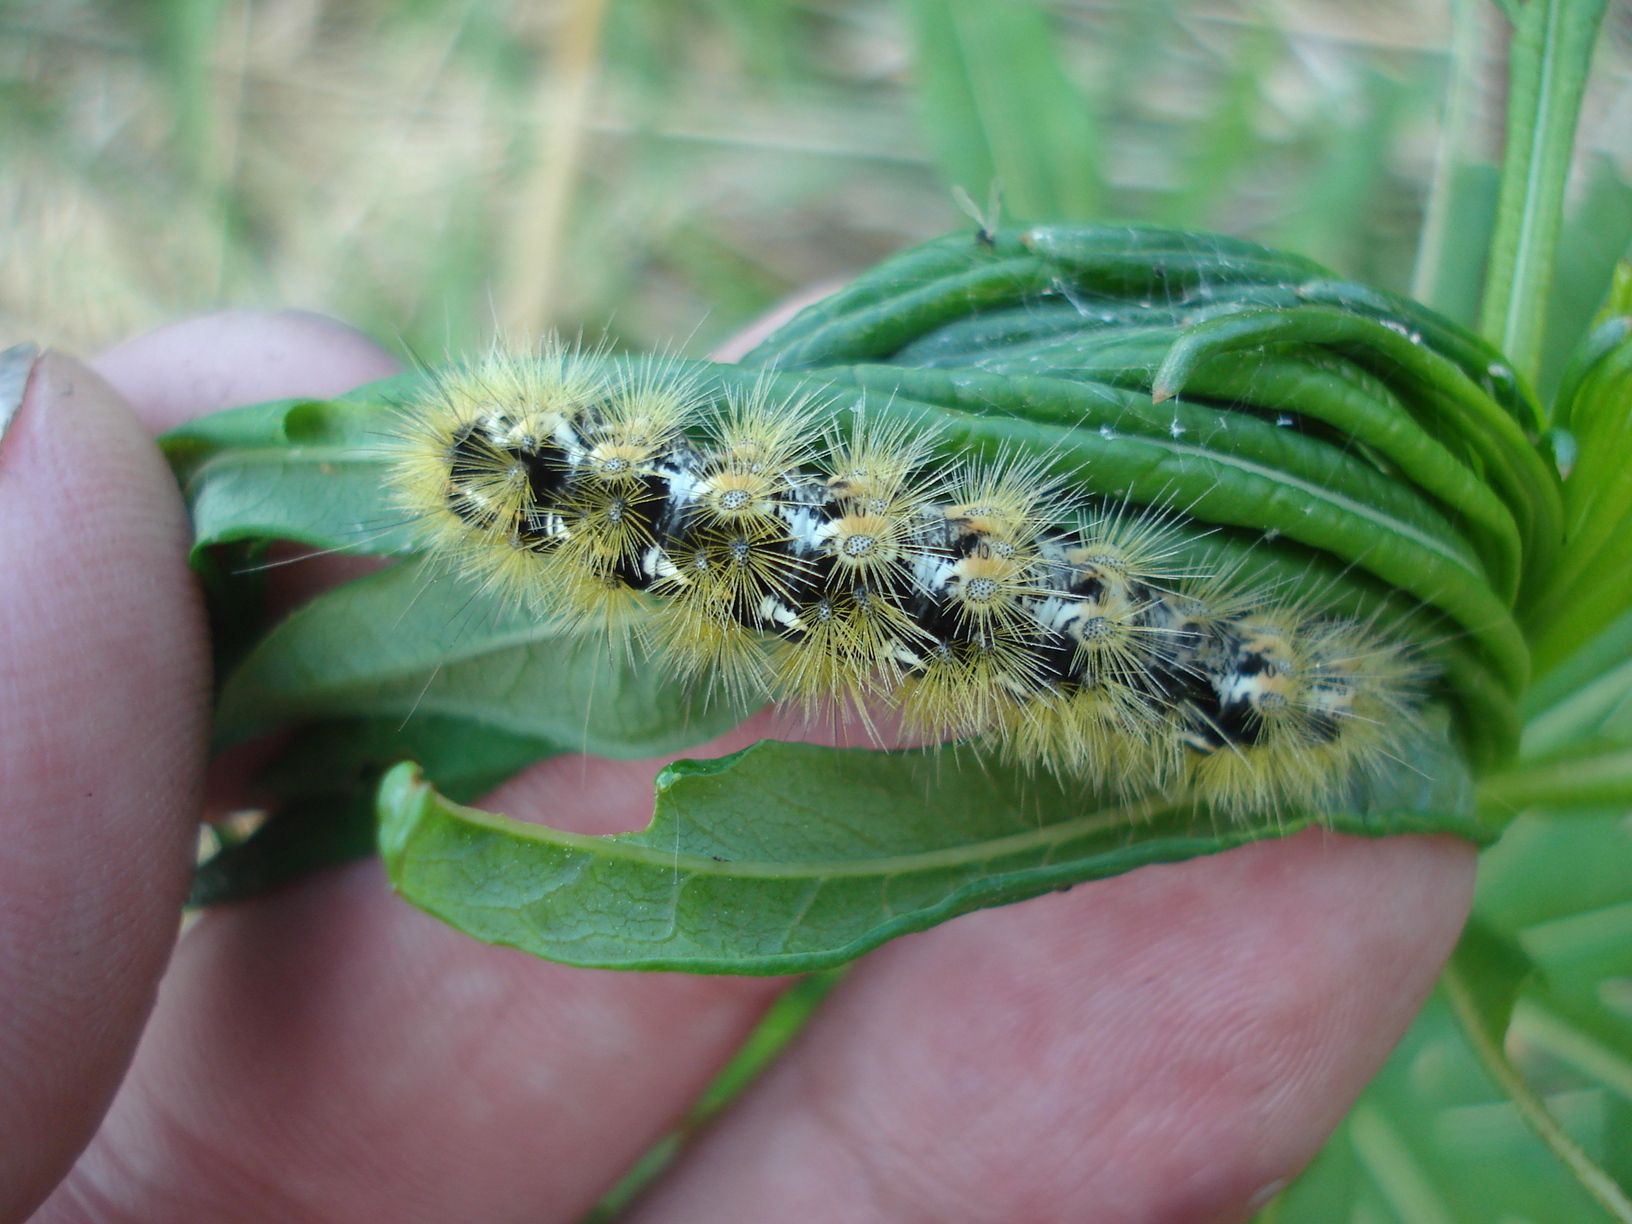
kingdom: Animalia
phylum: Arthropoda
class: Insecta
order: Lepidoptera
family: Erebidae
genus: Rhyparia
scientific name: Rhyparia purpurata
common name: Purple tiger
